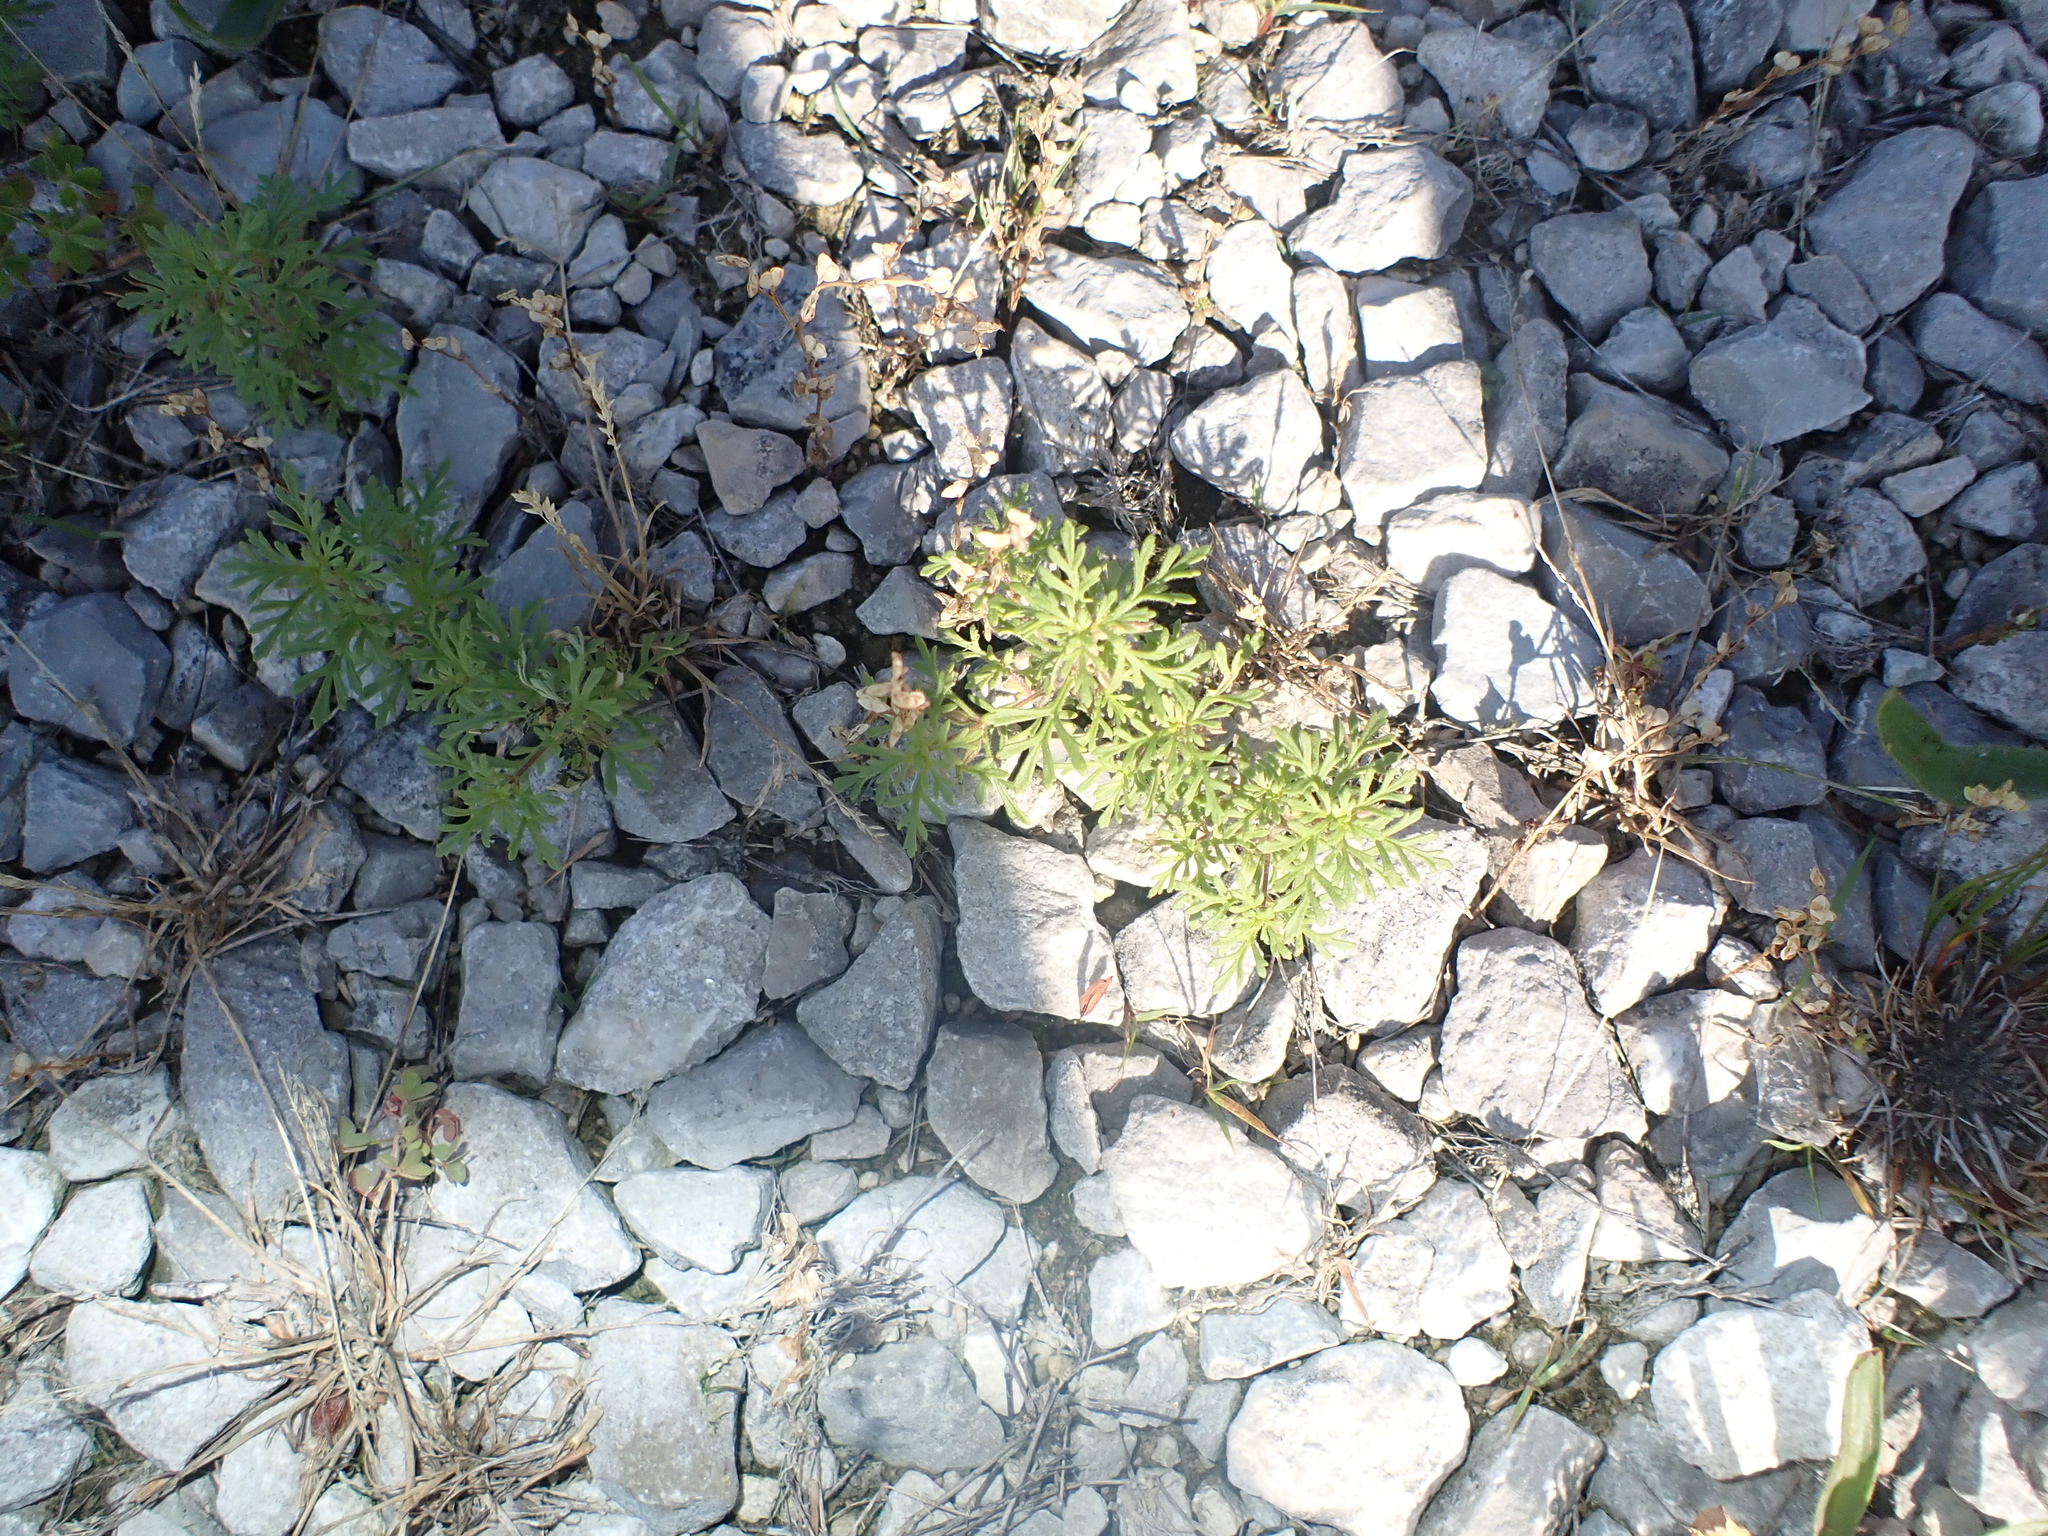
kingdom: Plantae
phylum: Tracheophyta
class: Magnoliopsida
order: Lamiales
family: Plantaginaceae
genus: Leucospora
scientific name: Leucospora multifida
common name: Narrow-leaf paleseed
